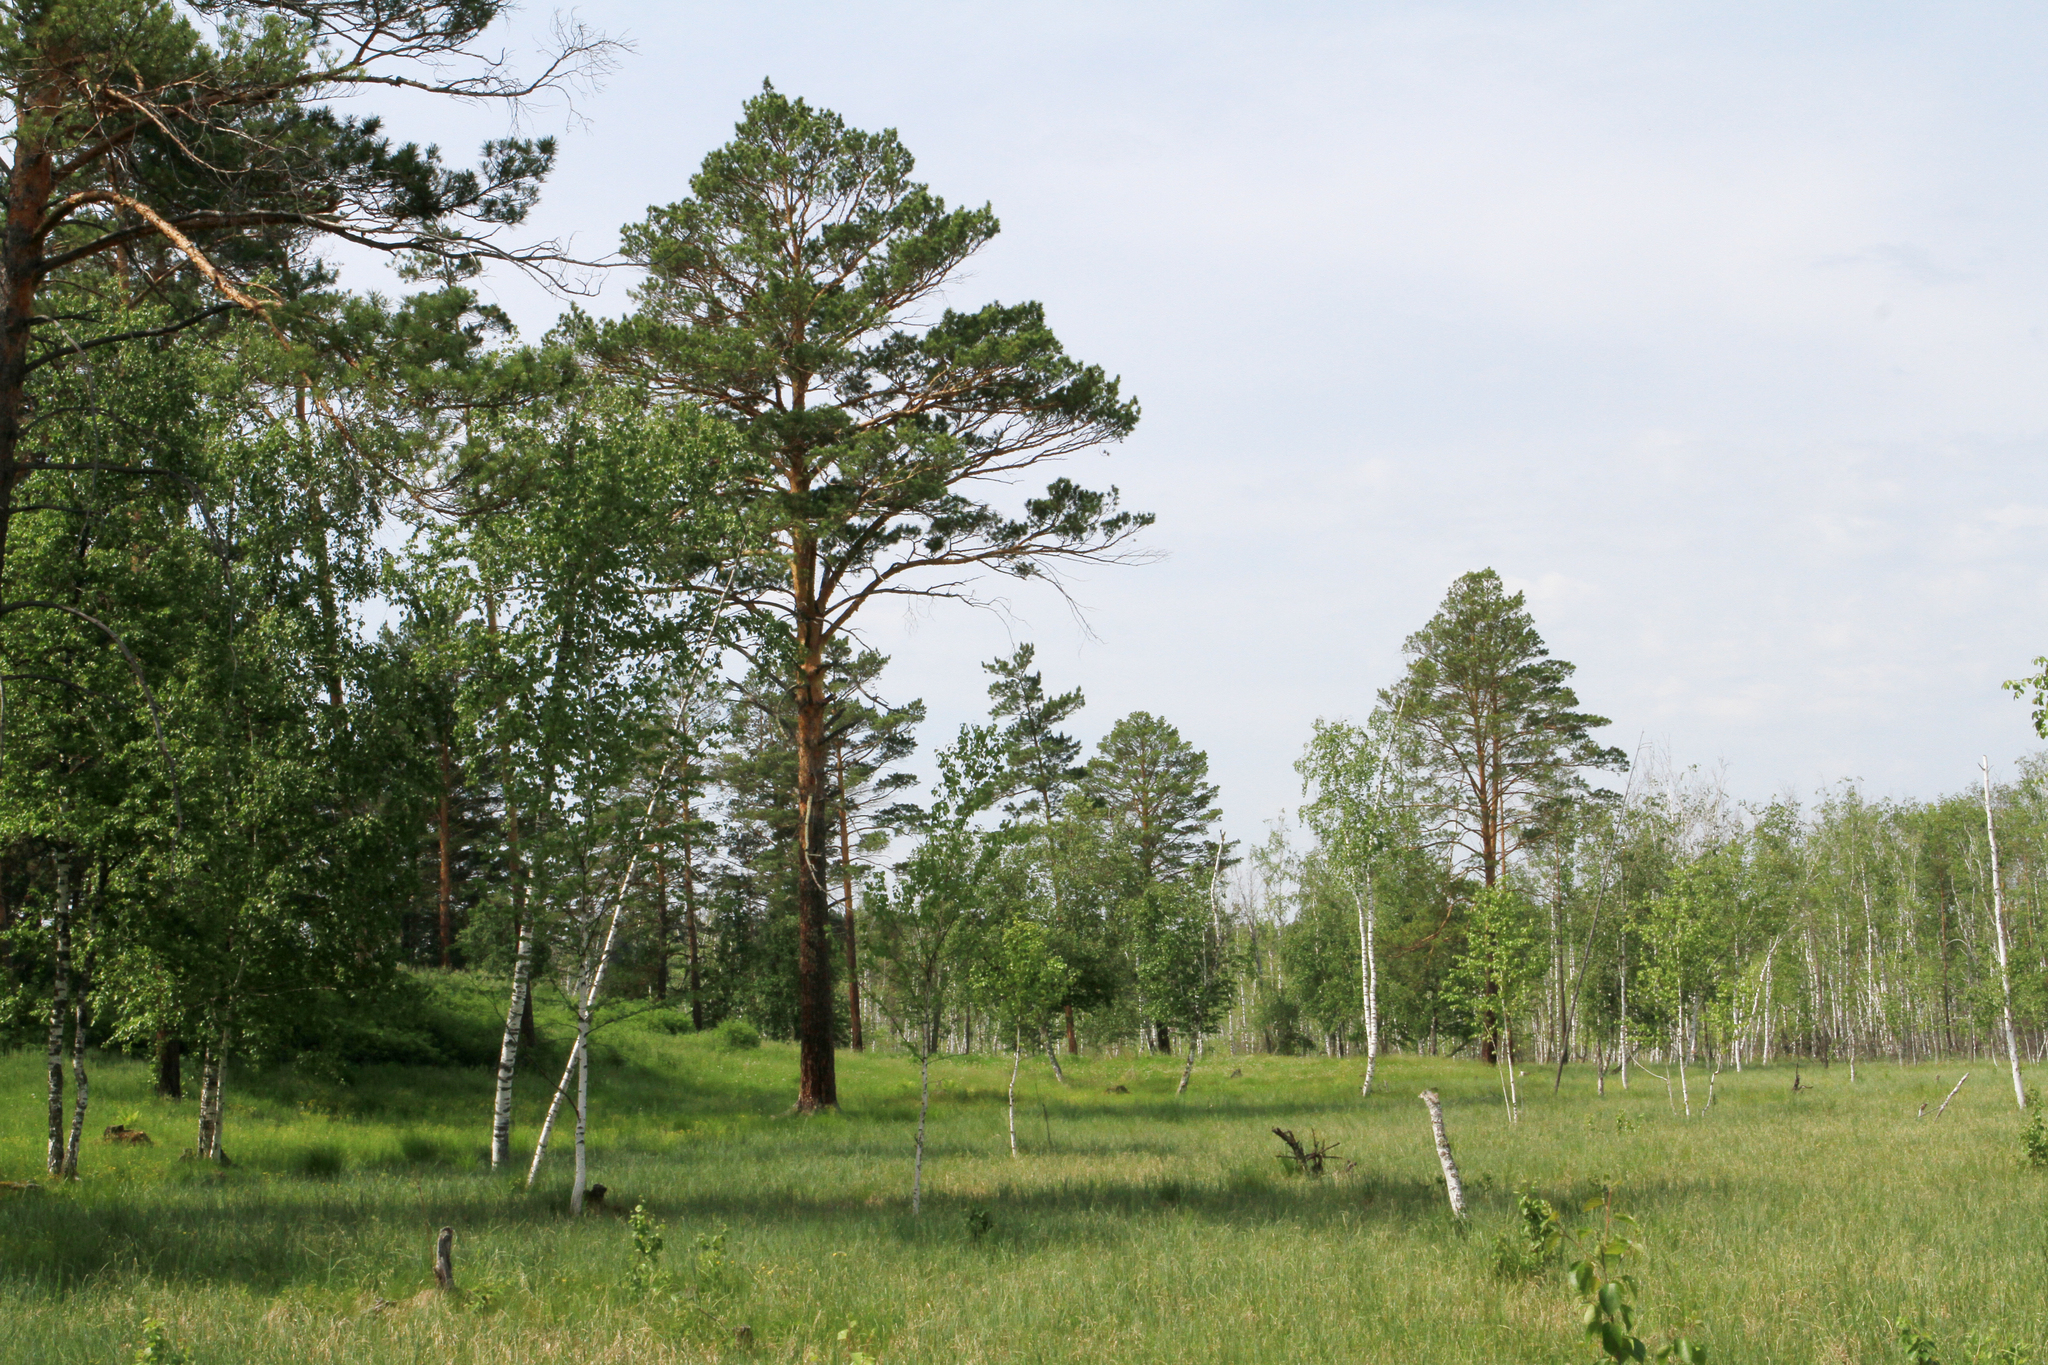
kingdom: Plantae
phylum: Tracheophyta
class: Pinopsida
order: Pinales
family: Pinaceae
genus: Pinus
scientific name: Pinus sylvestris
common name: Scots pine
